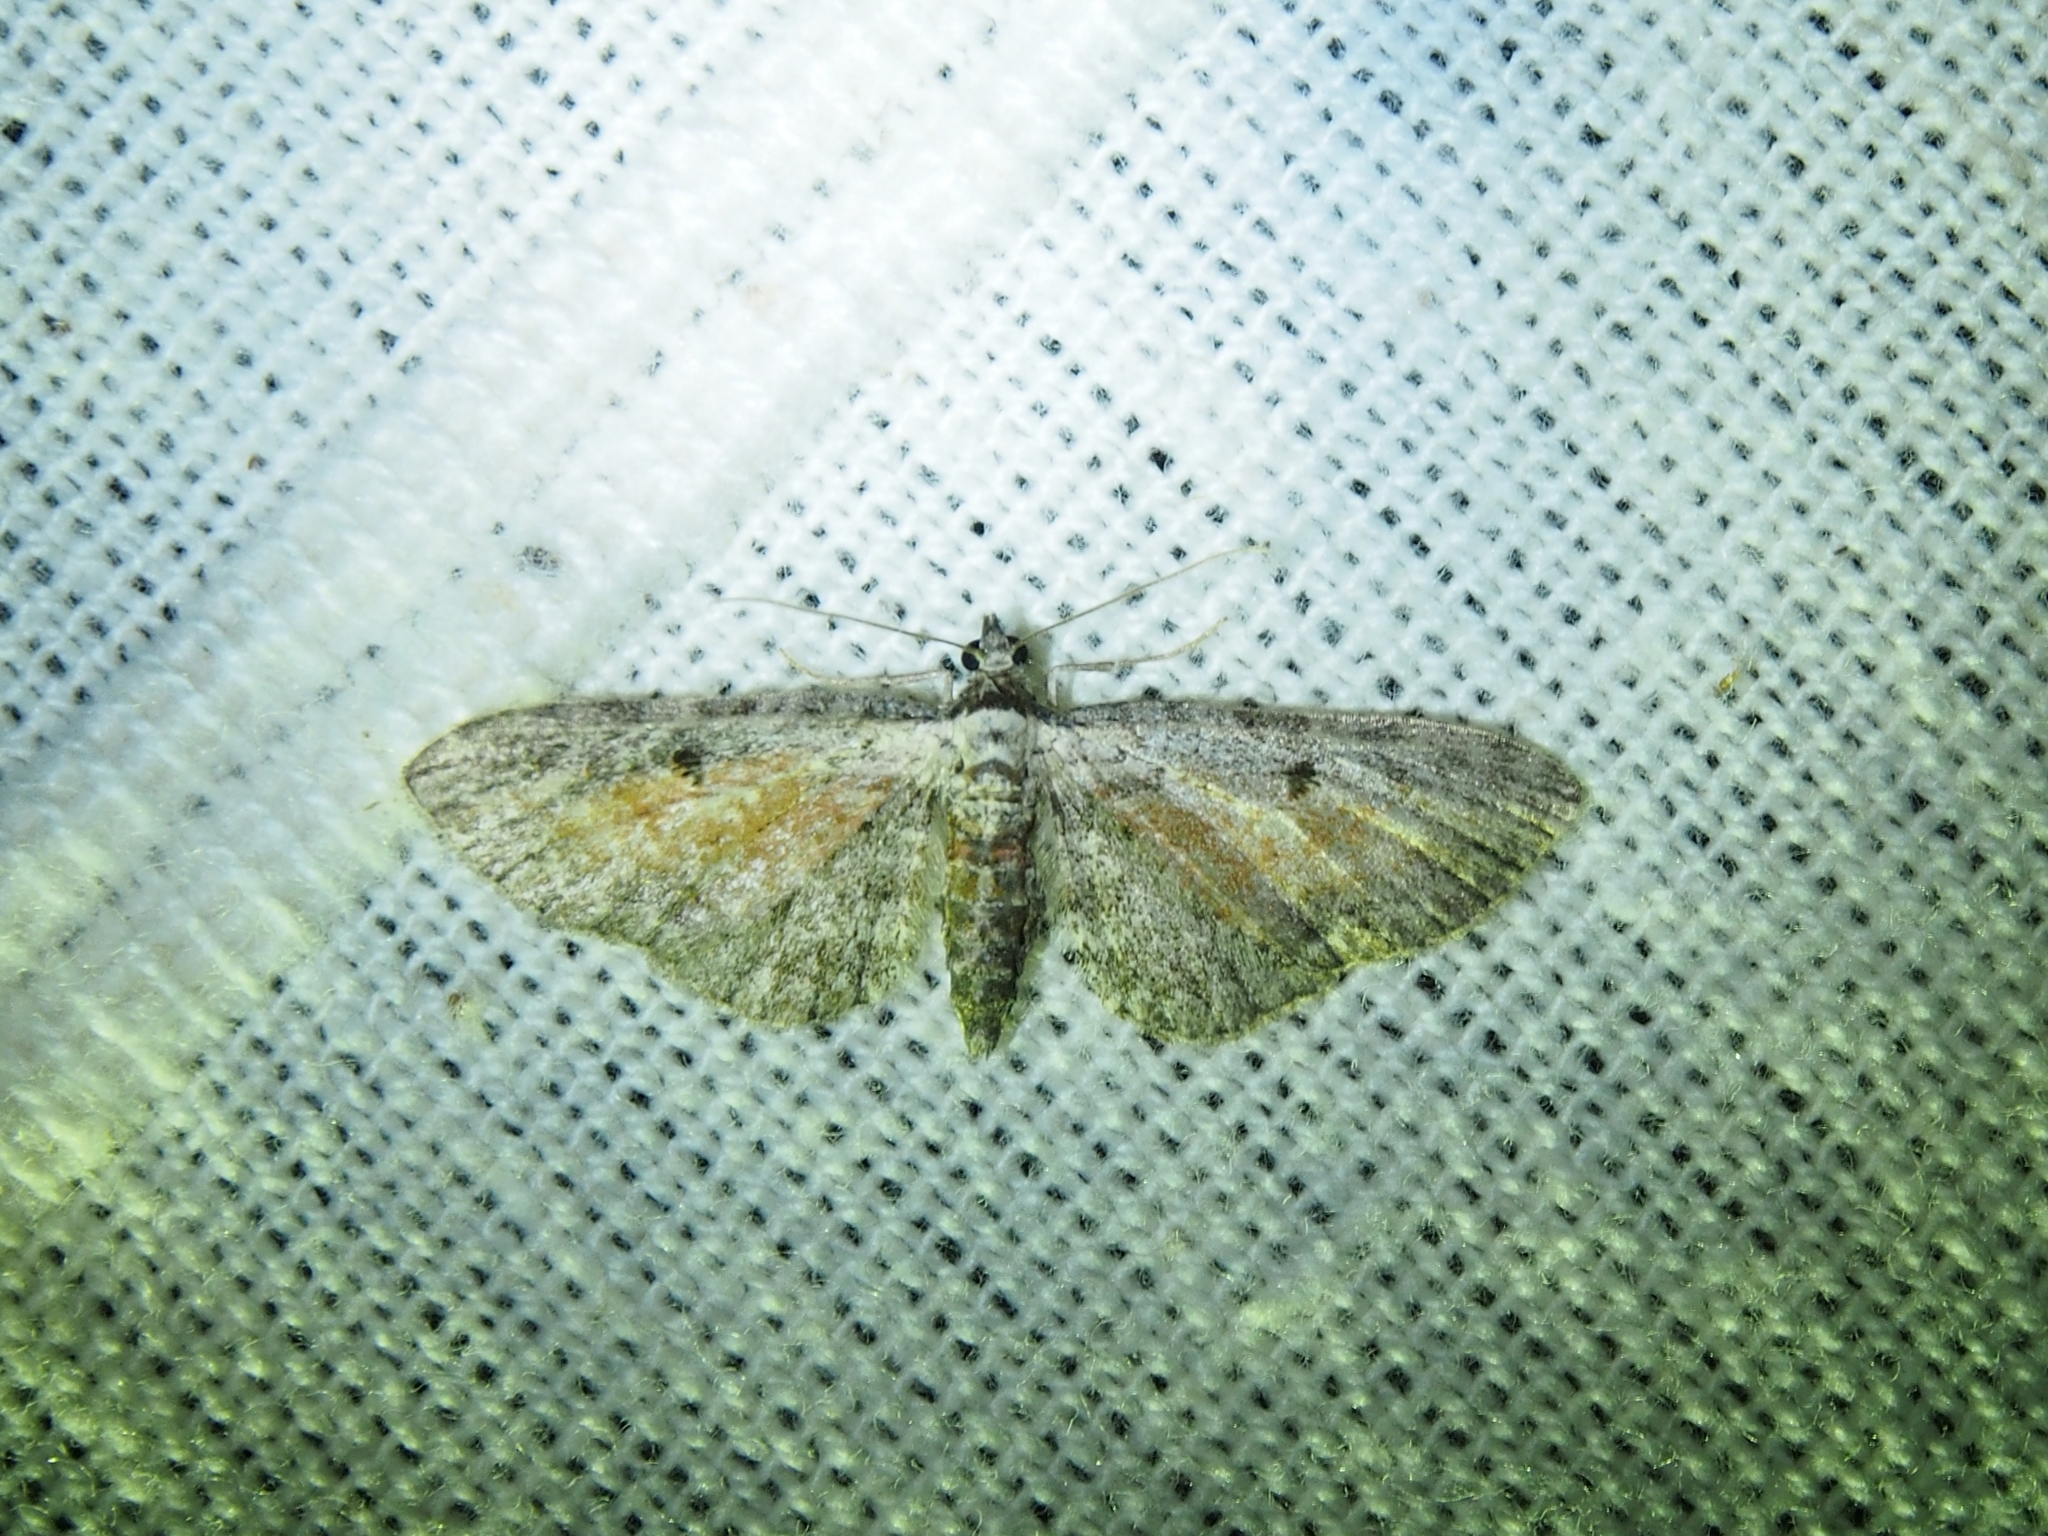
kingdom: Animalia
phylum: Arthropoda
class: Insecta
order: Lepidoptera
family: Geometridae
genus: Eupithecia
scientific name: Eupithecia icterata
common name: Tawny speckled pug
